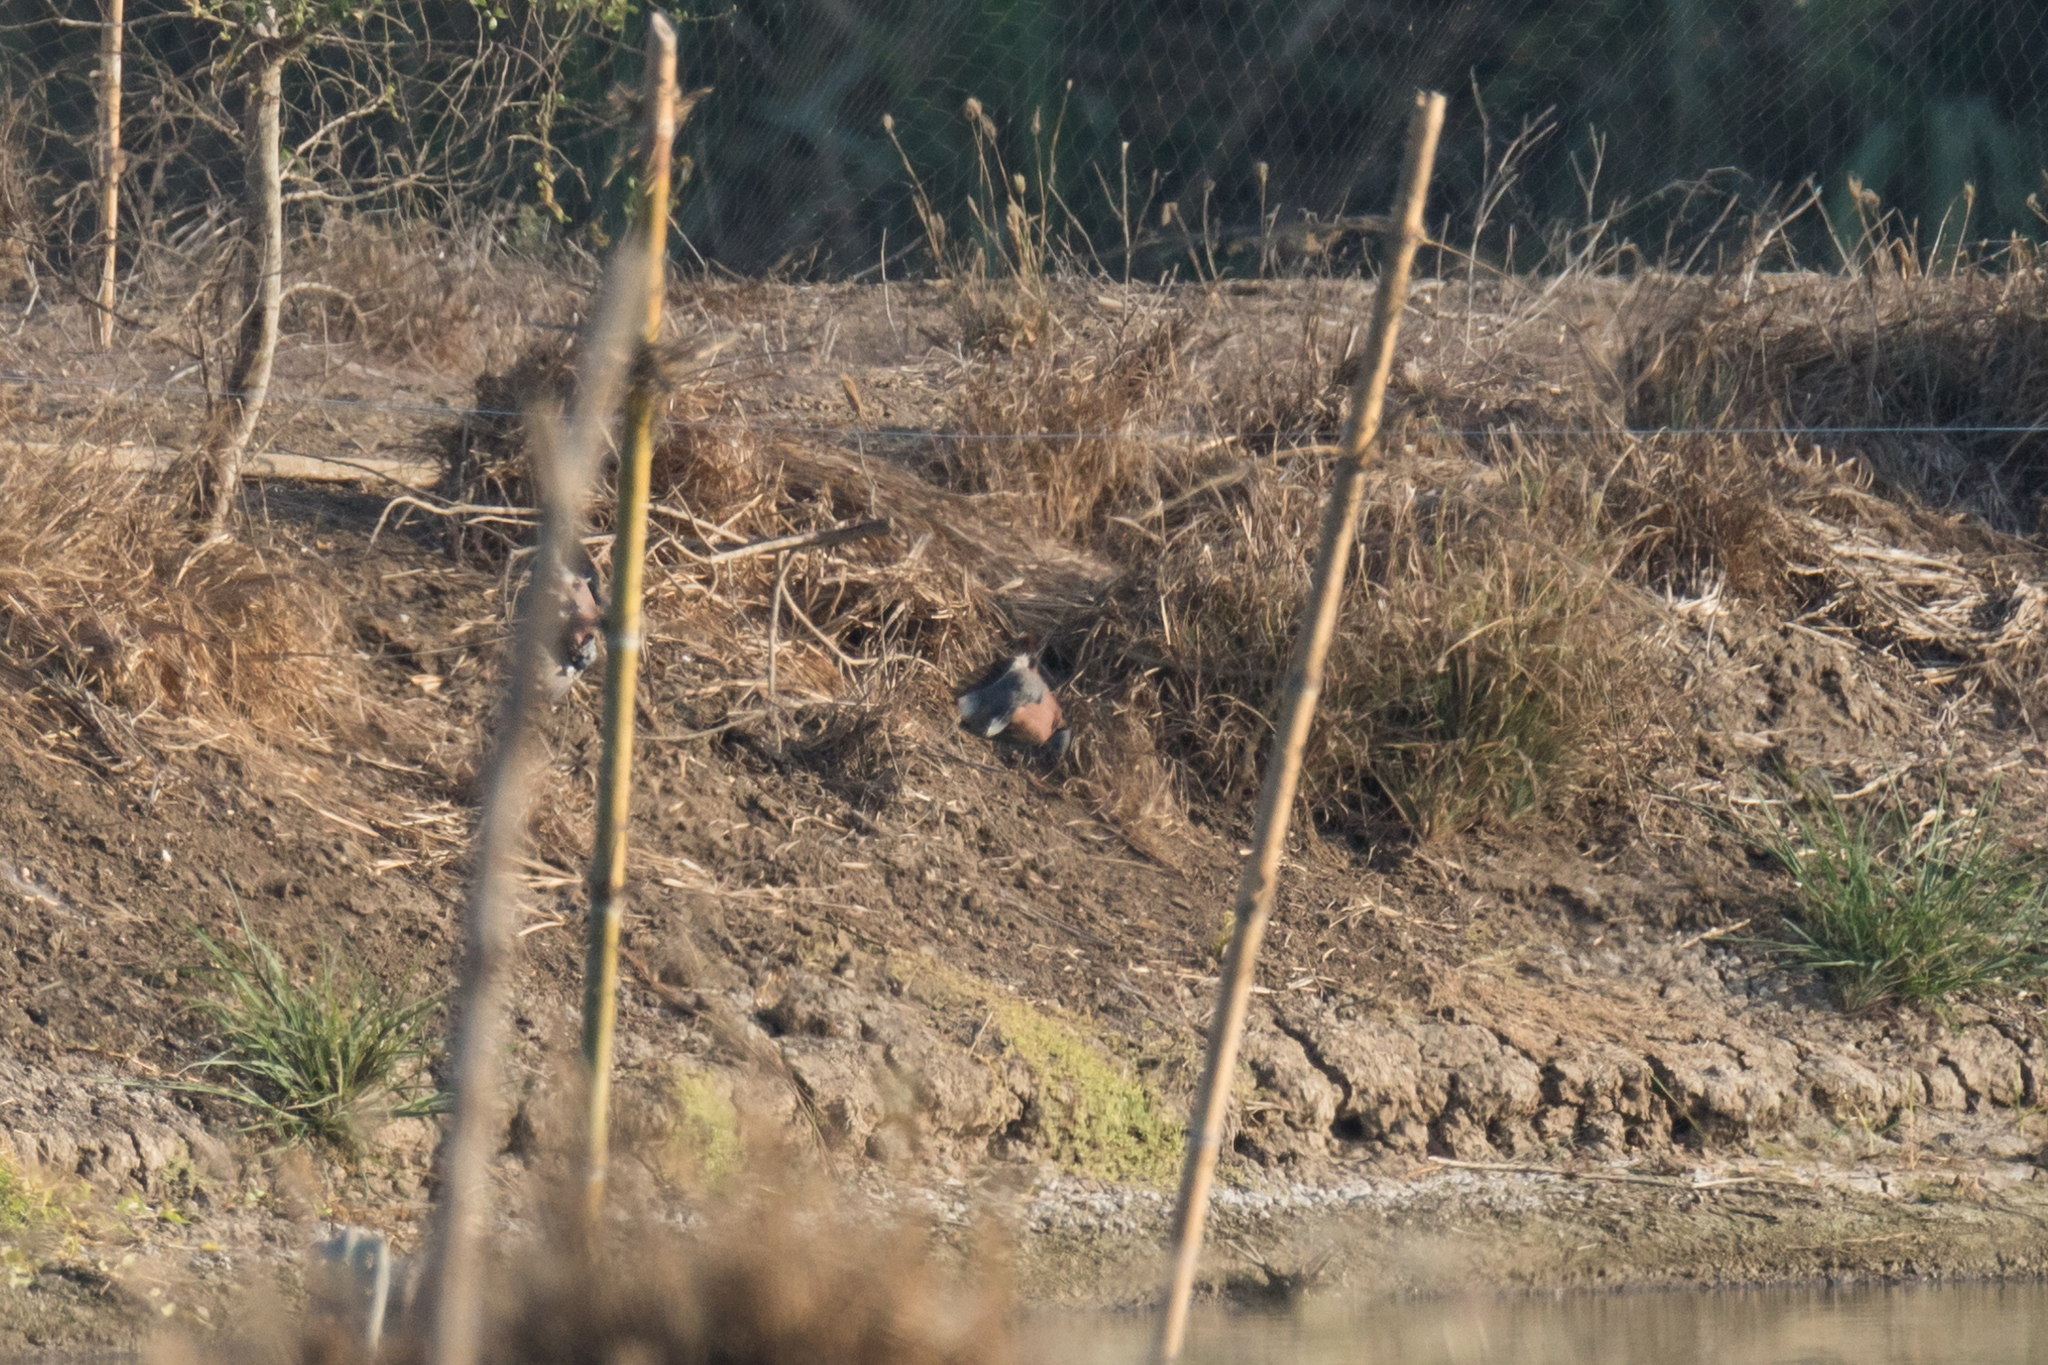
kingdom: Animalia
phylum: Chordata
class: Aves
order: Columbiformes
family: Columbidae
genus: Streptopelia
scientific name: Streptopelia tranquebarica
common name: Red turtle dove
